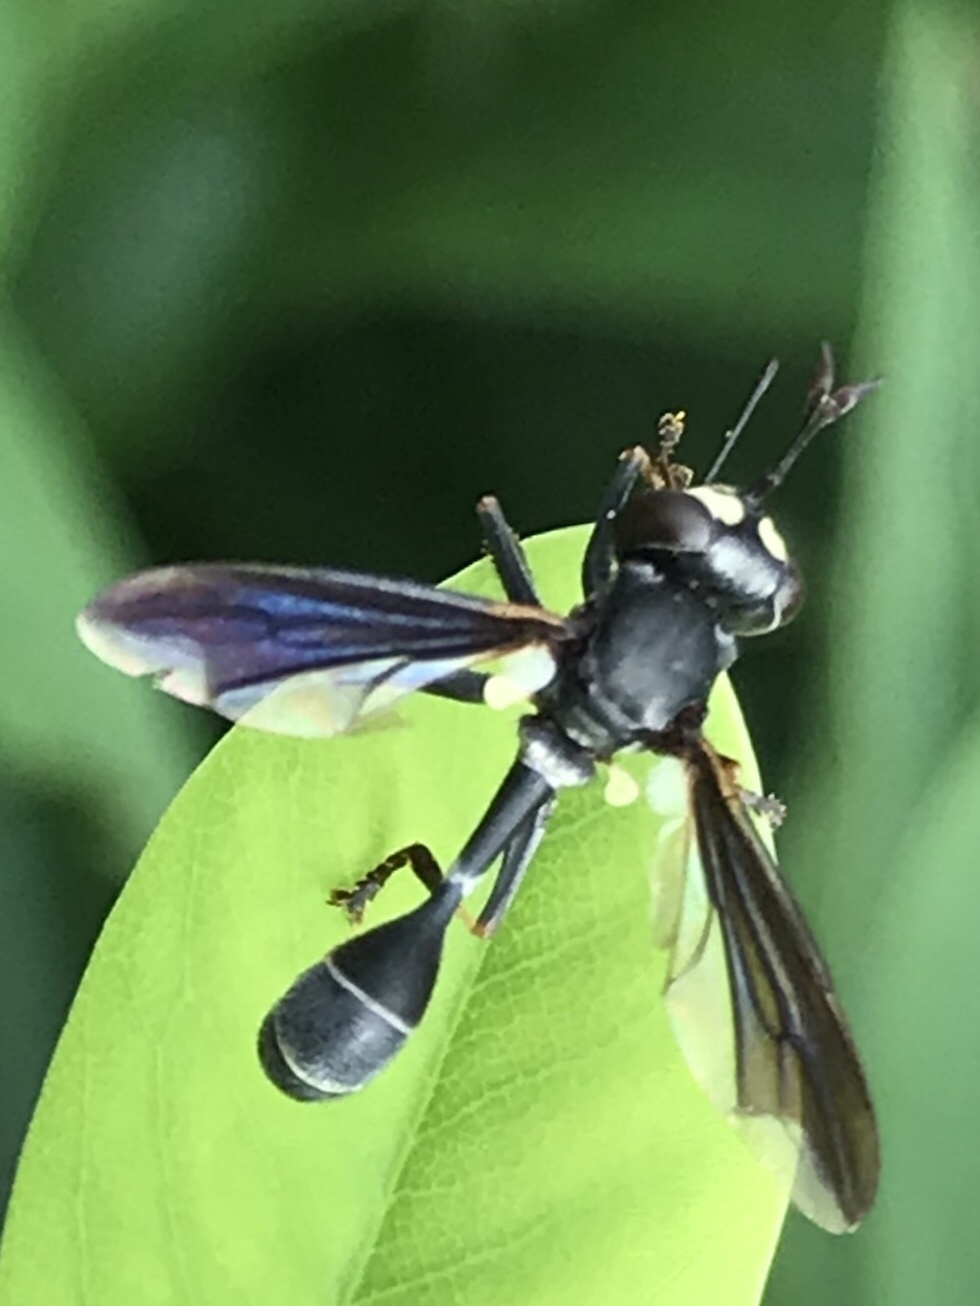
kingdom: Animalia
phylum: Arthropoda
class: Insecta
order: Diptera
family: Conopidae
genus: Physocephala
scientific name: Physocephala tibialis
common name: Common eastern physocephala
